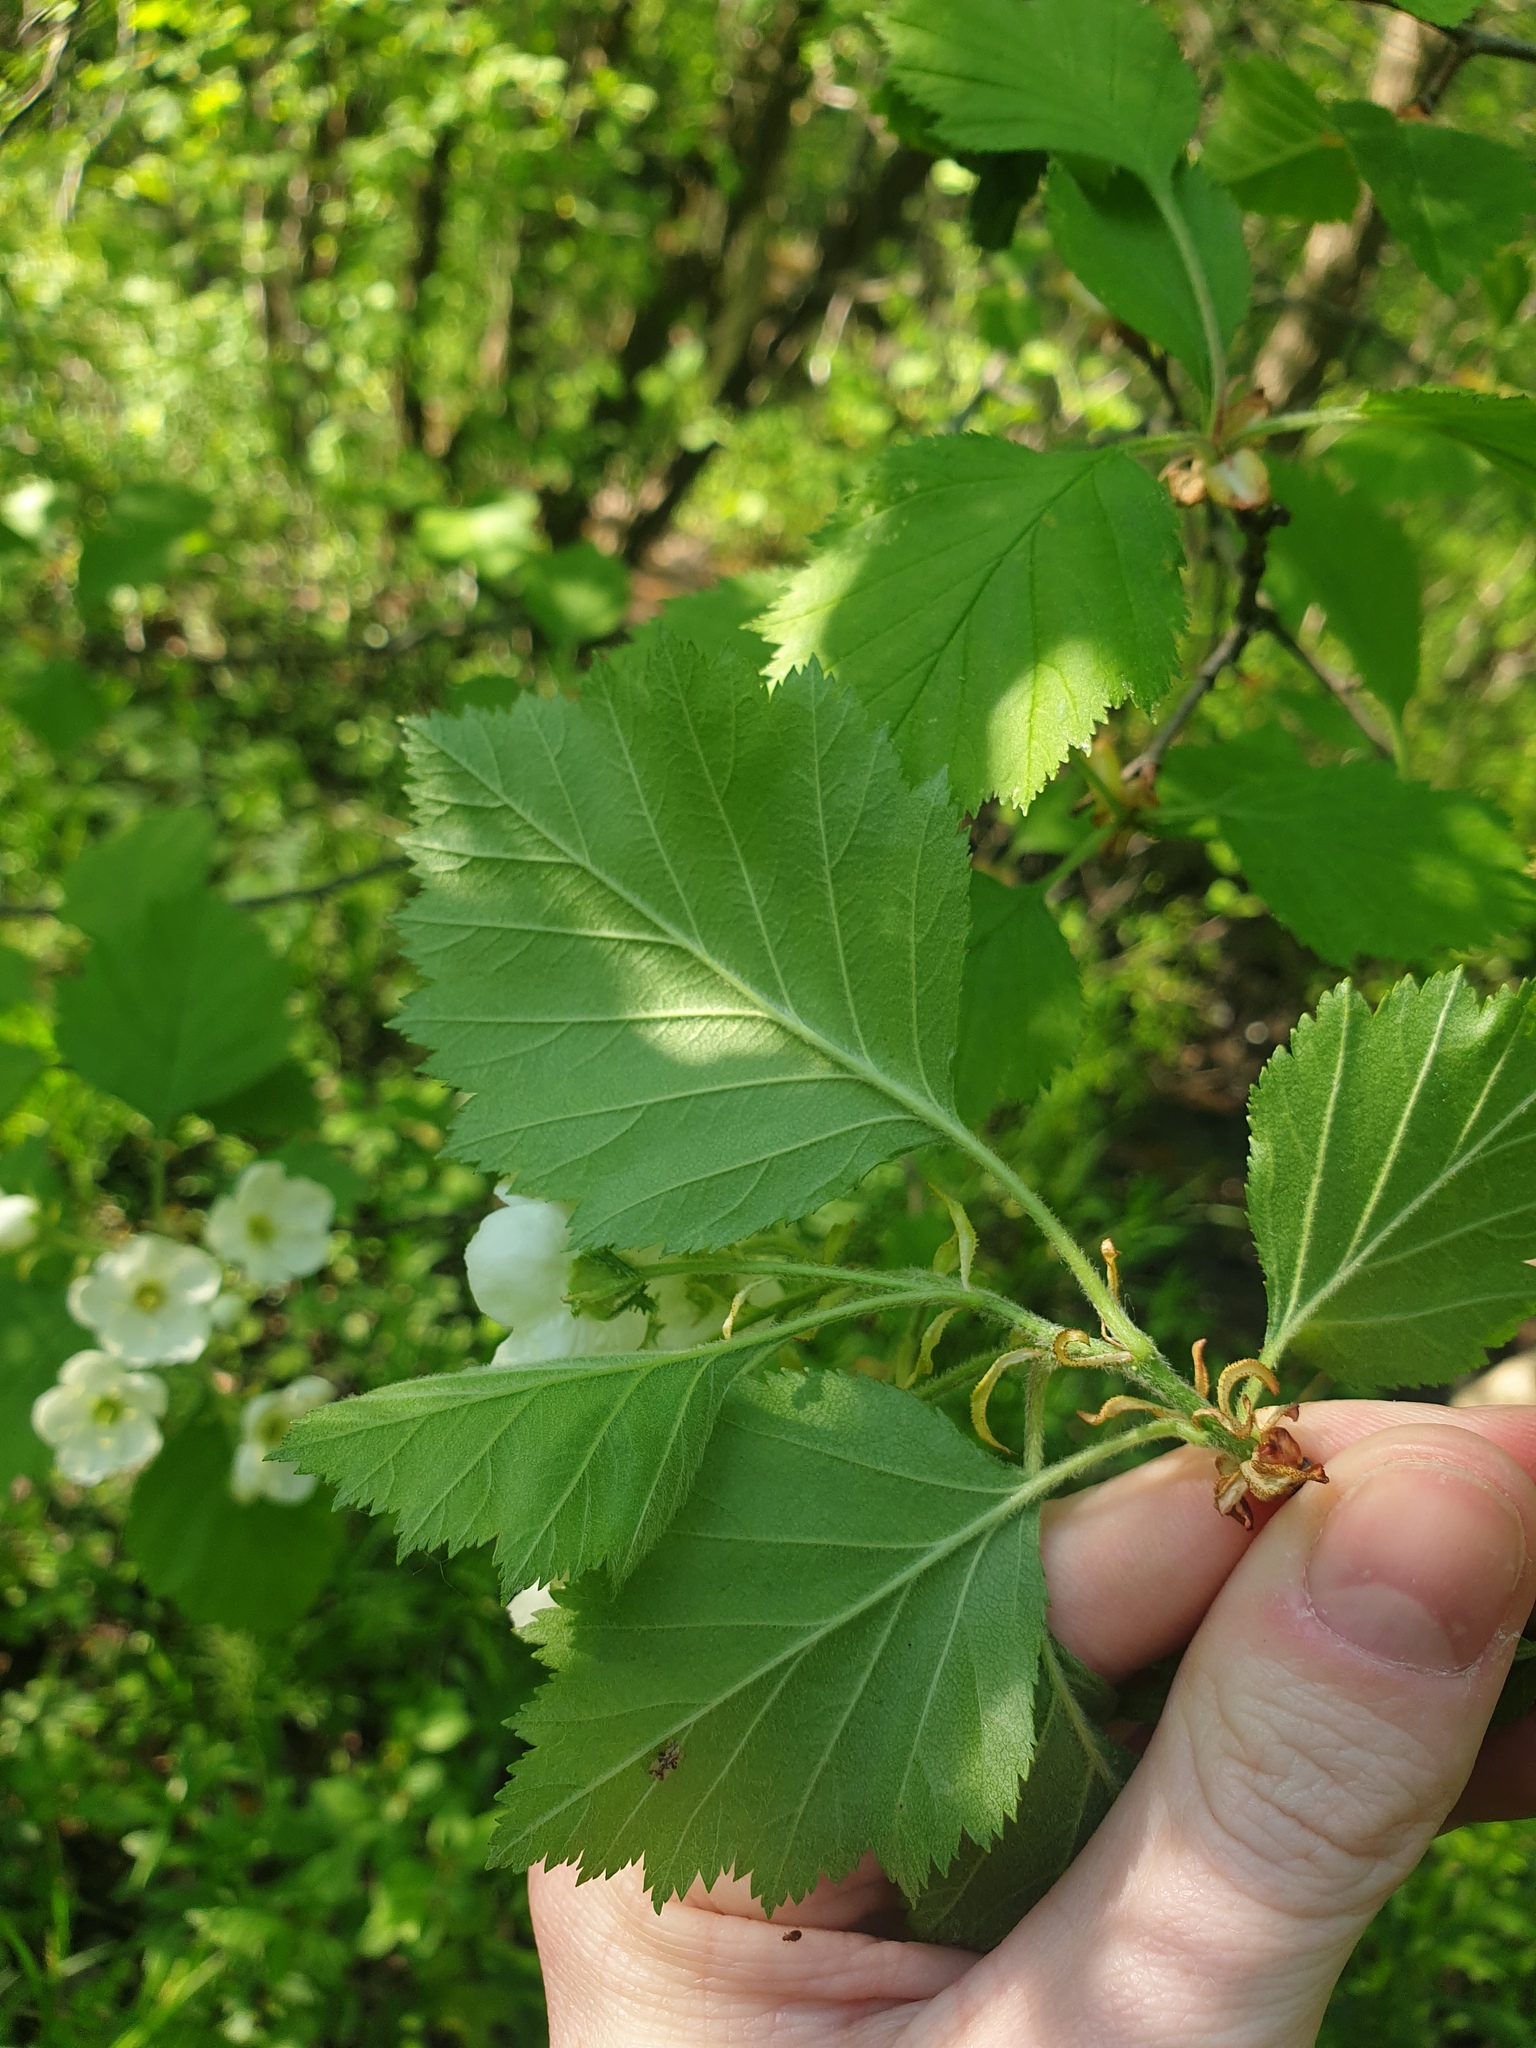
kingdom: Plantae
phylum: Tracheophyta
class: Magnoliopsida
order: Rosales
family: Rosaceae
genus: Crataegus
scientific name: Crataegus submollis
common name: Hairy cockspurthorn
